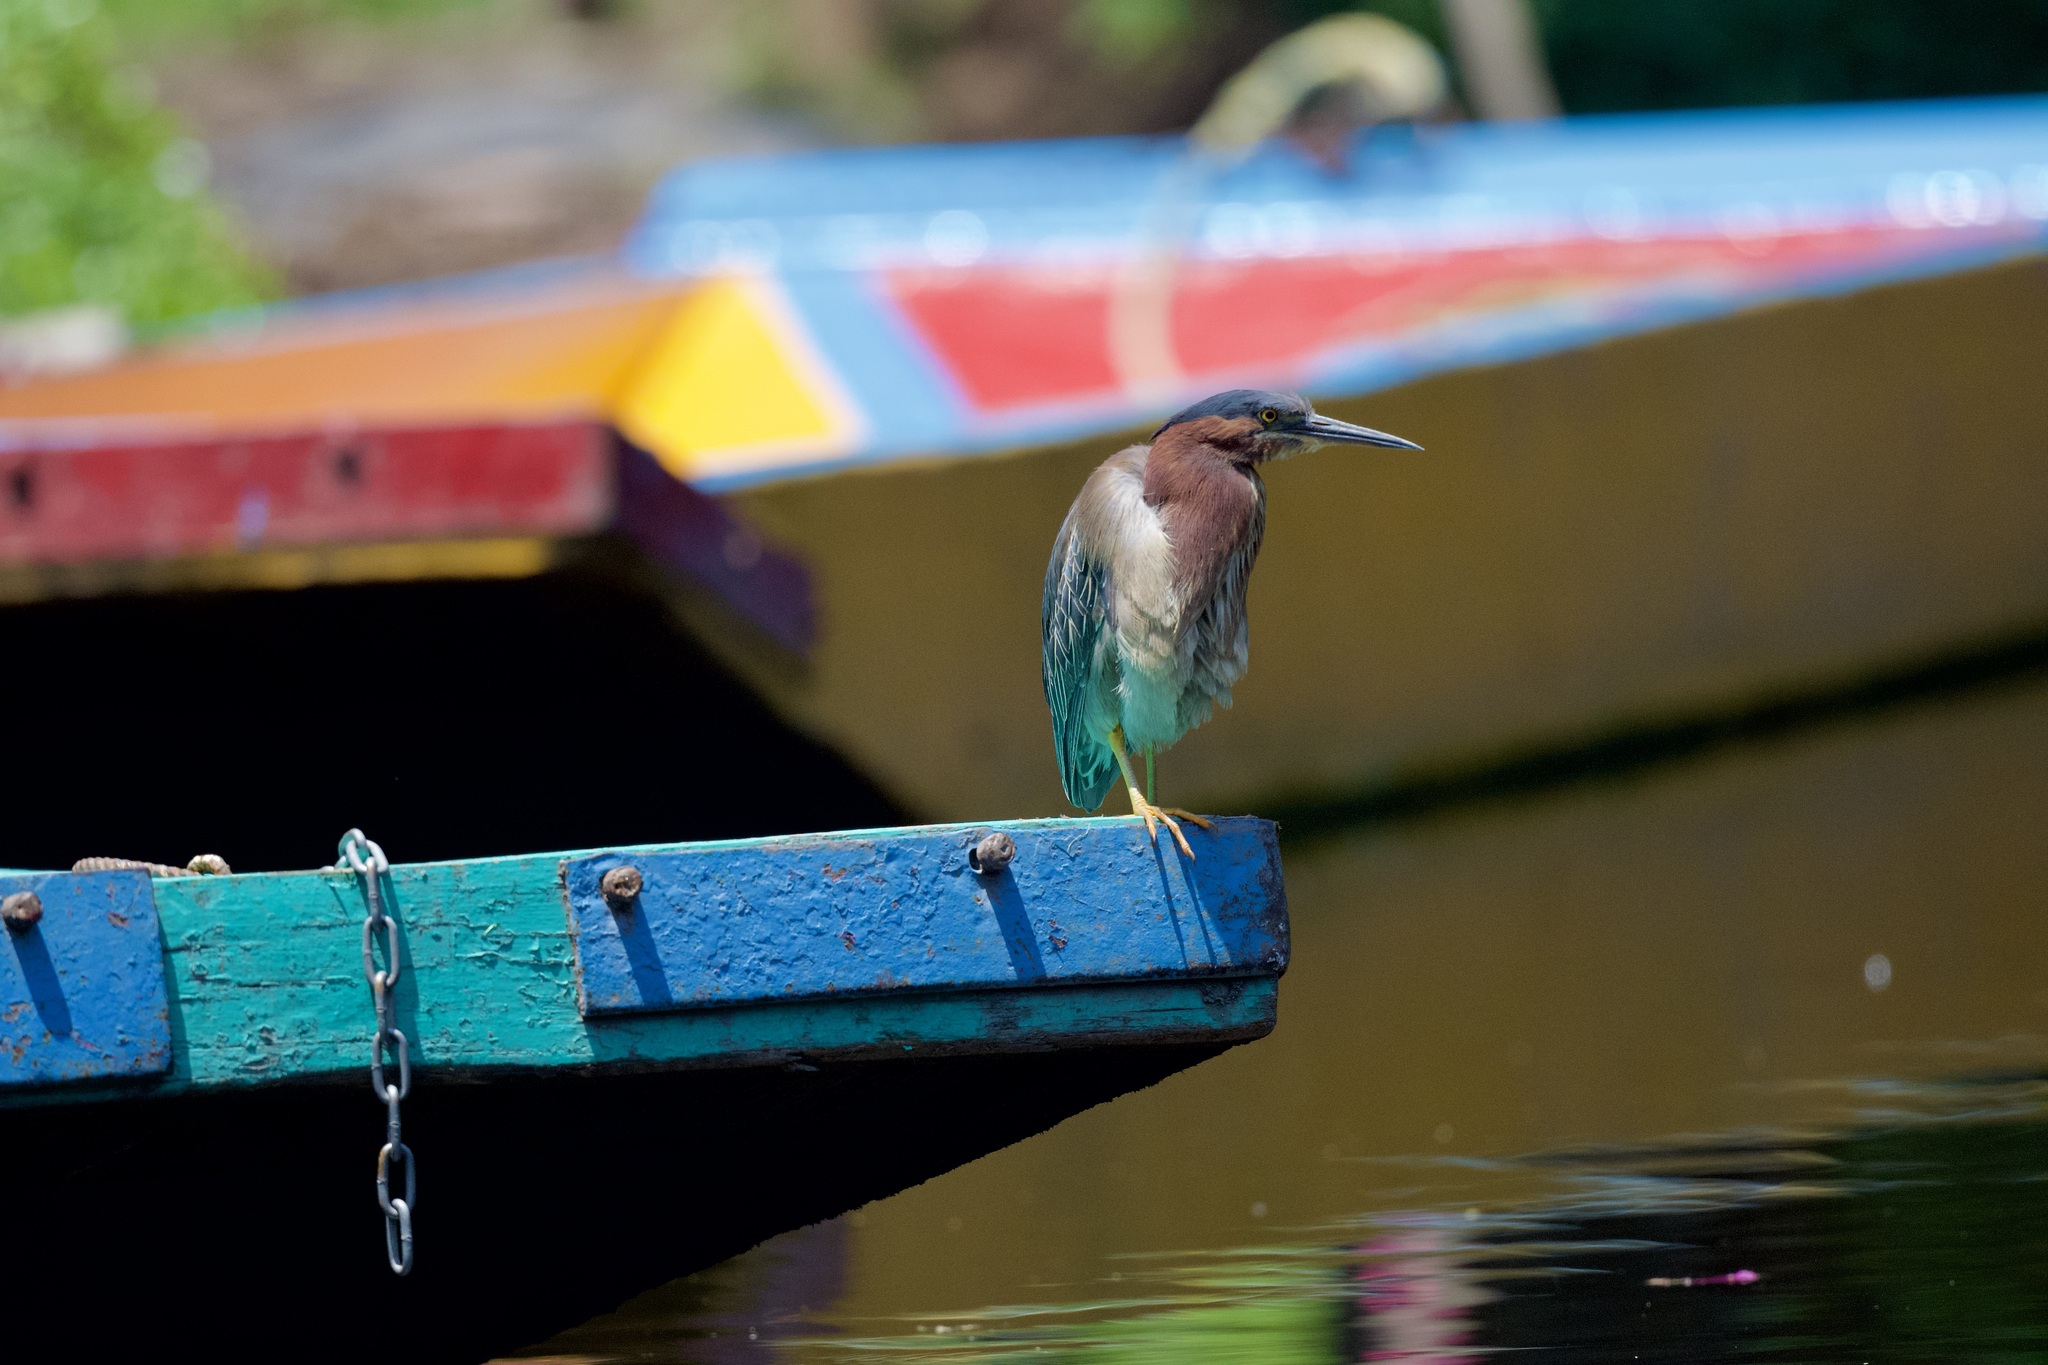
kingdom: Animalia
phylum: Chordata
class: Aves
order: Pelecaniformes
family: Ardeidae
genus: Butorides
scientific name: Butorides virescens
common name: Green heron
